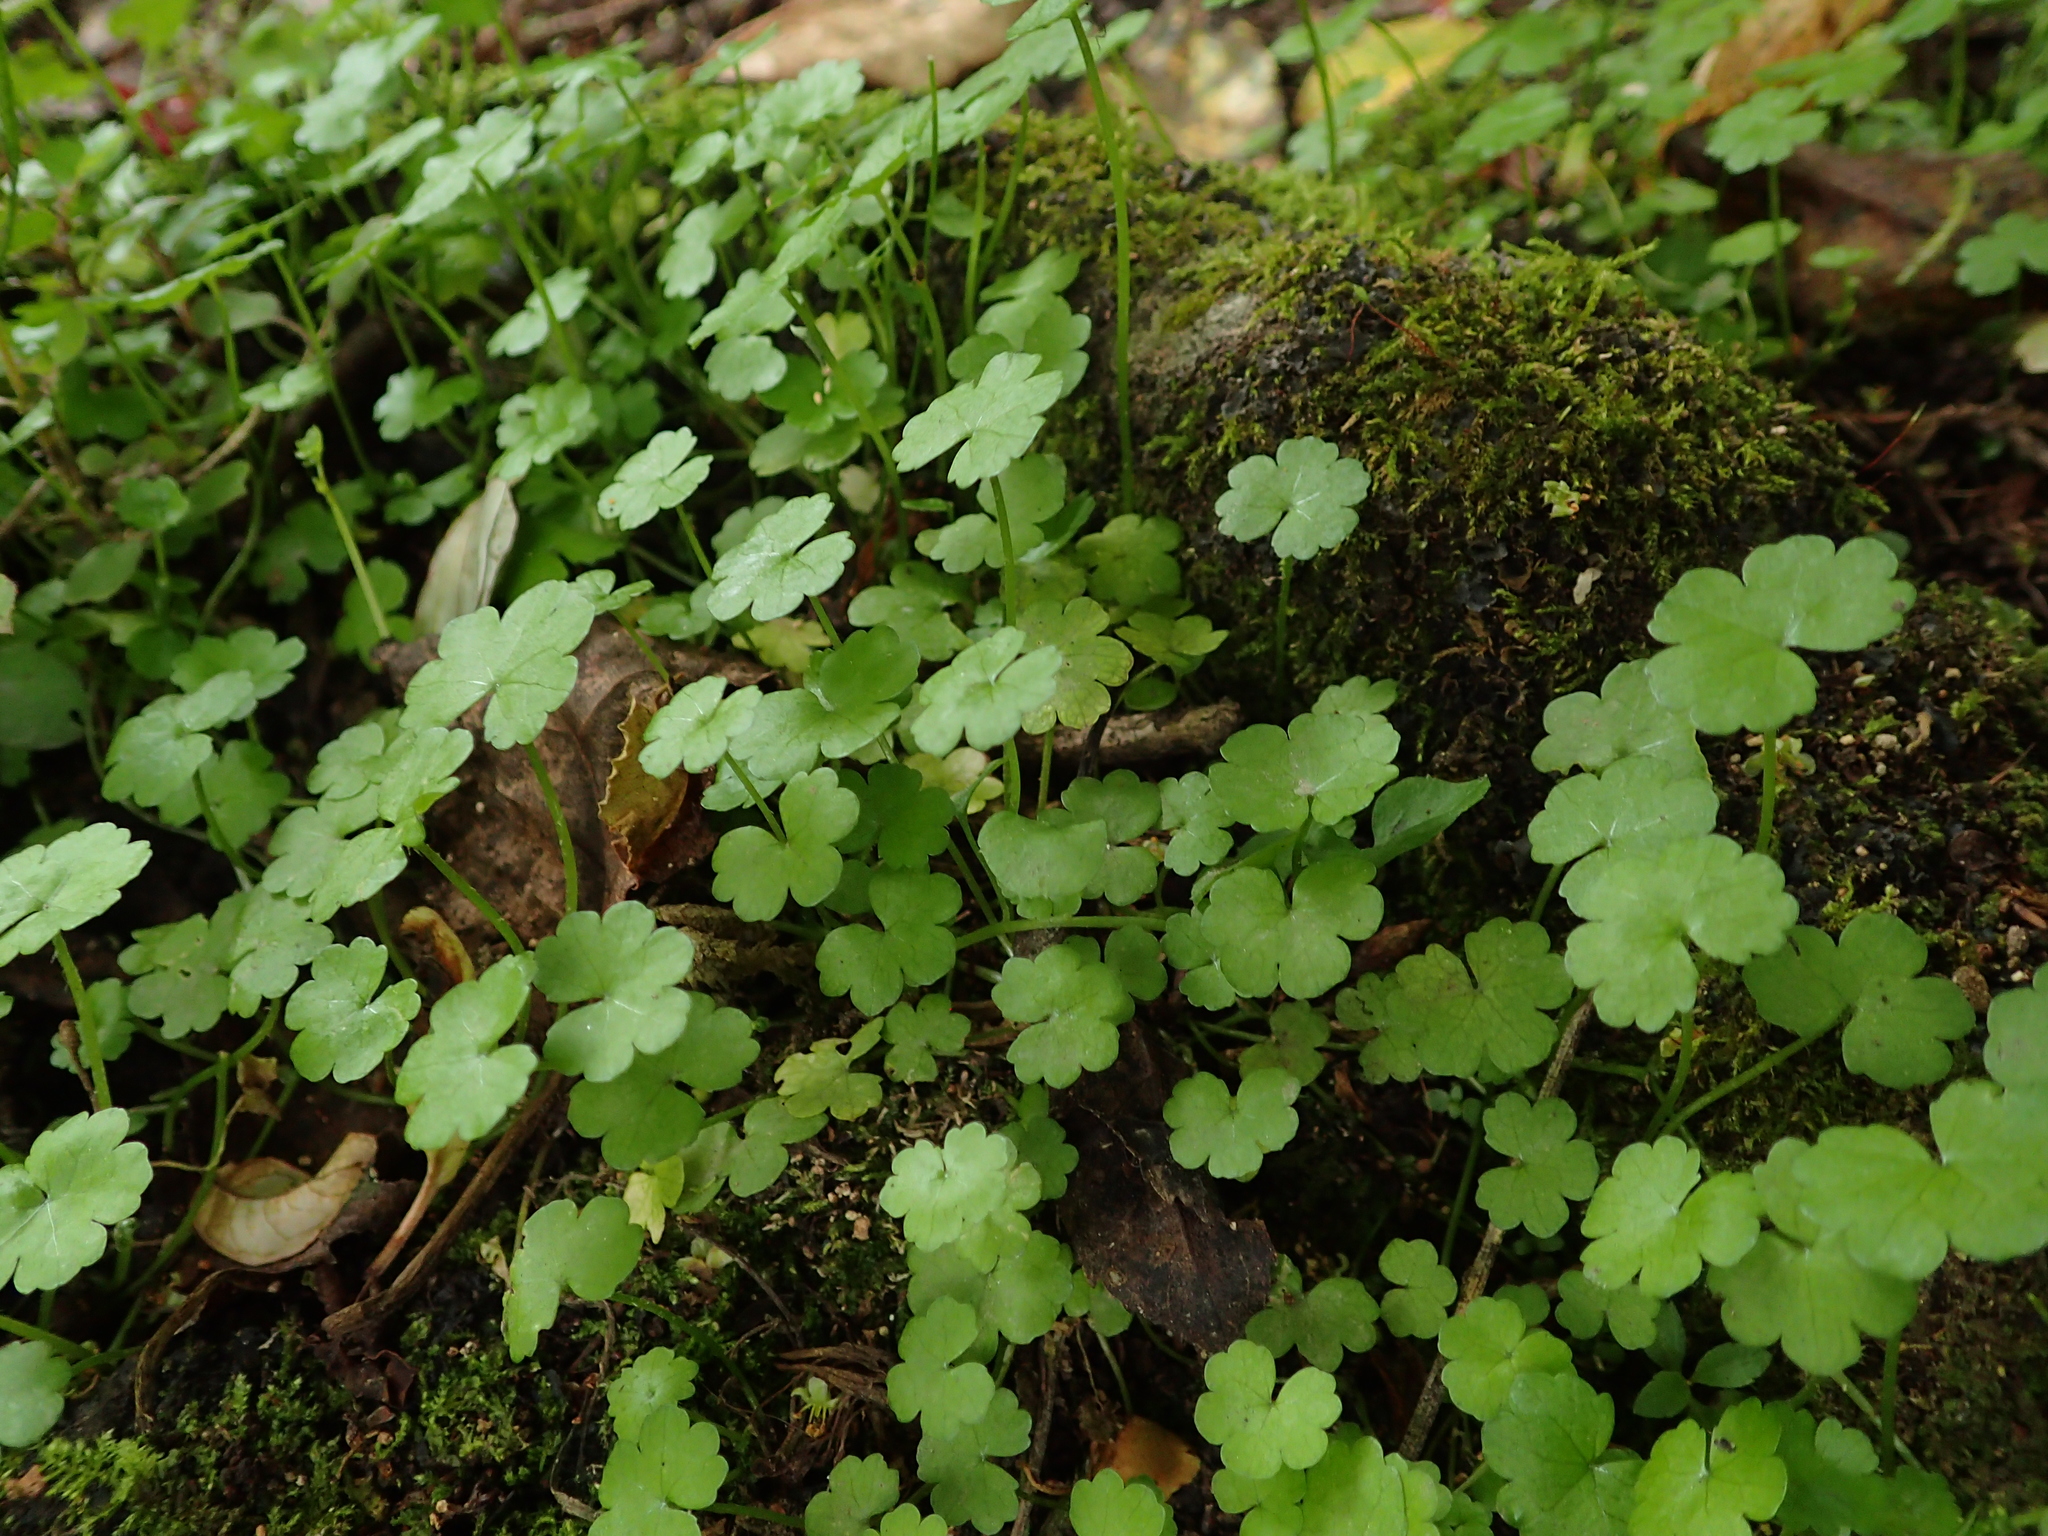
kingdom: Plantae
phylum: Tracheophyta
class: Magnoliopsida
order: Apiales
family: Araliaceae
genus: Hydrocotyle
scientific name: Hydrocotyle heteromeria
